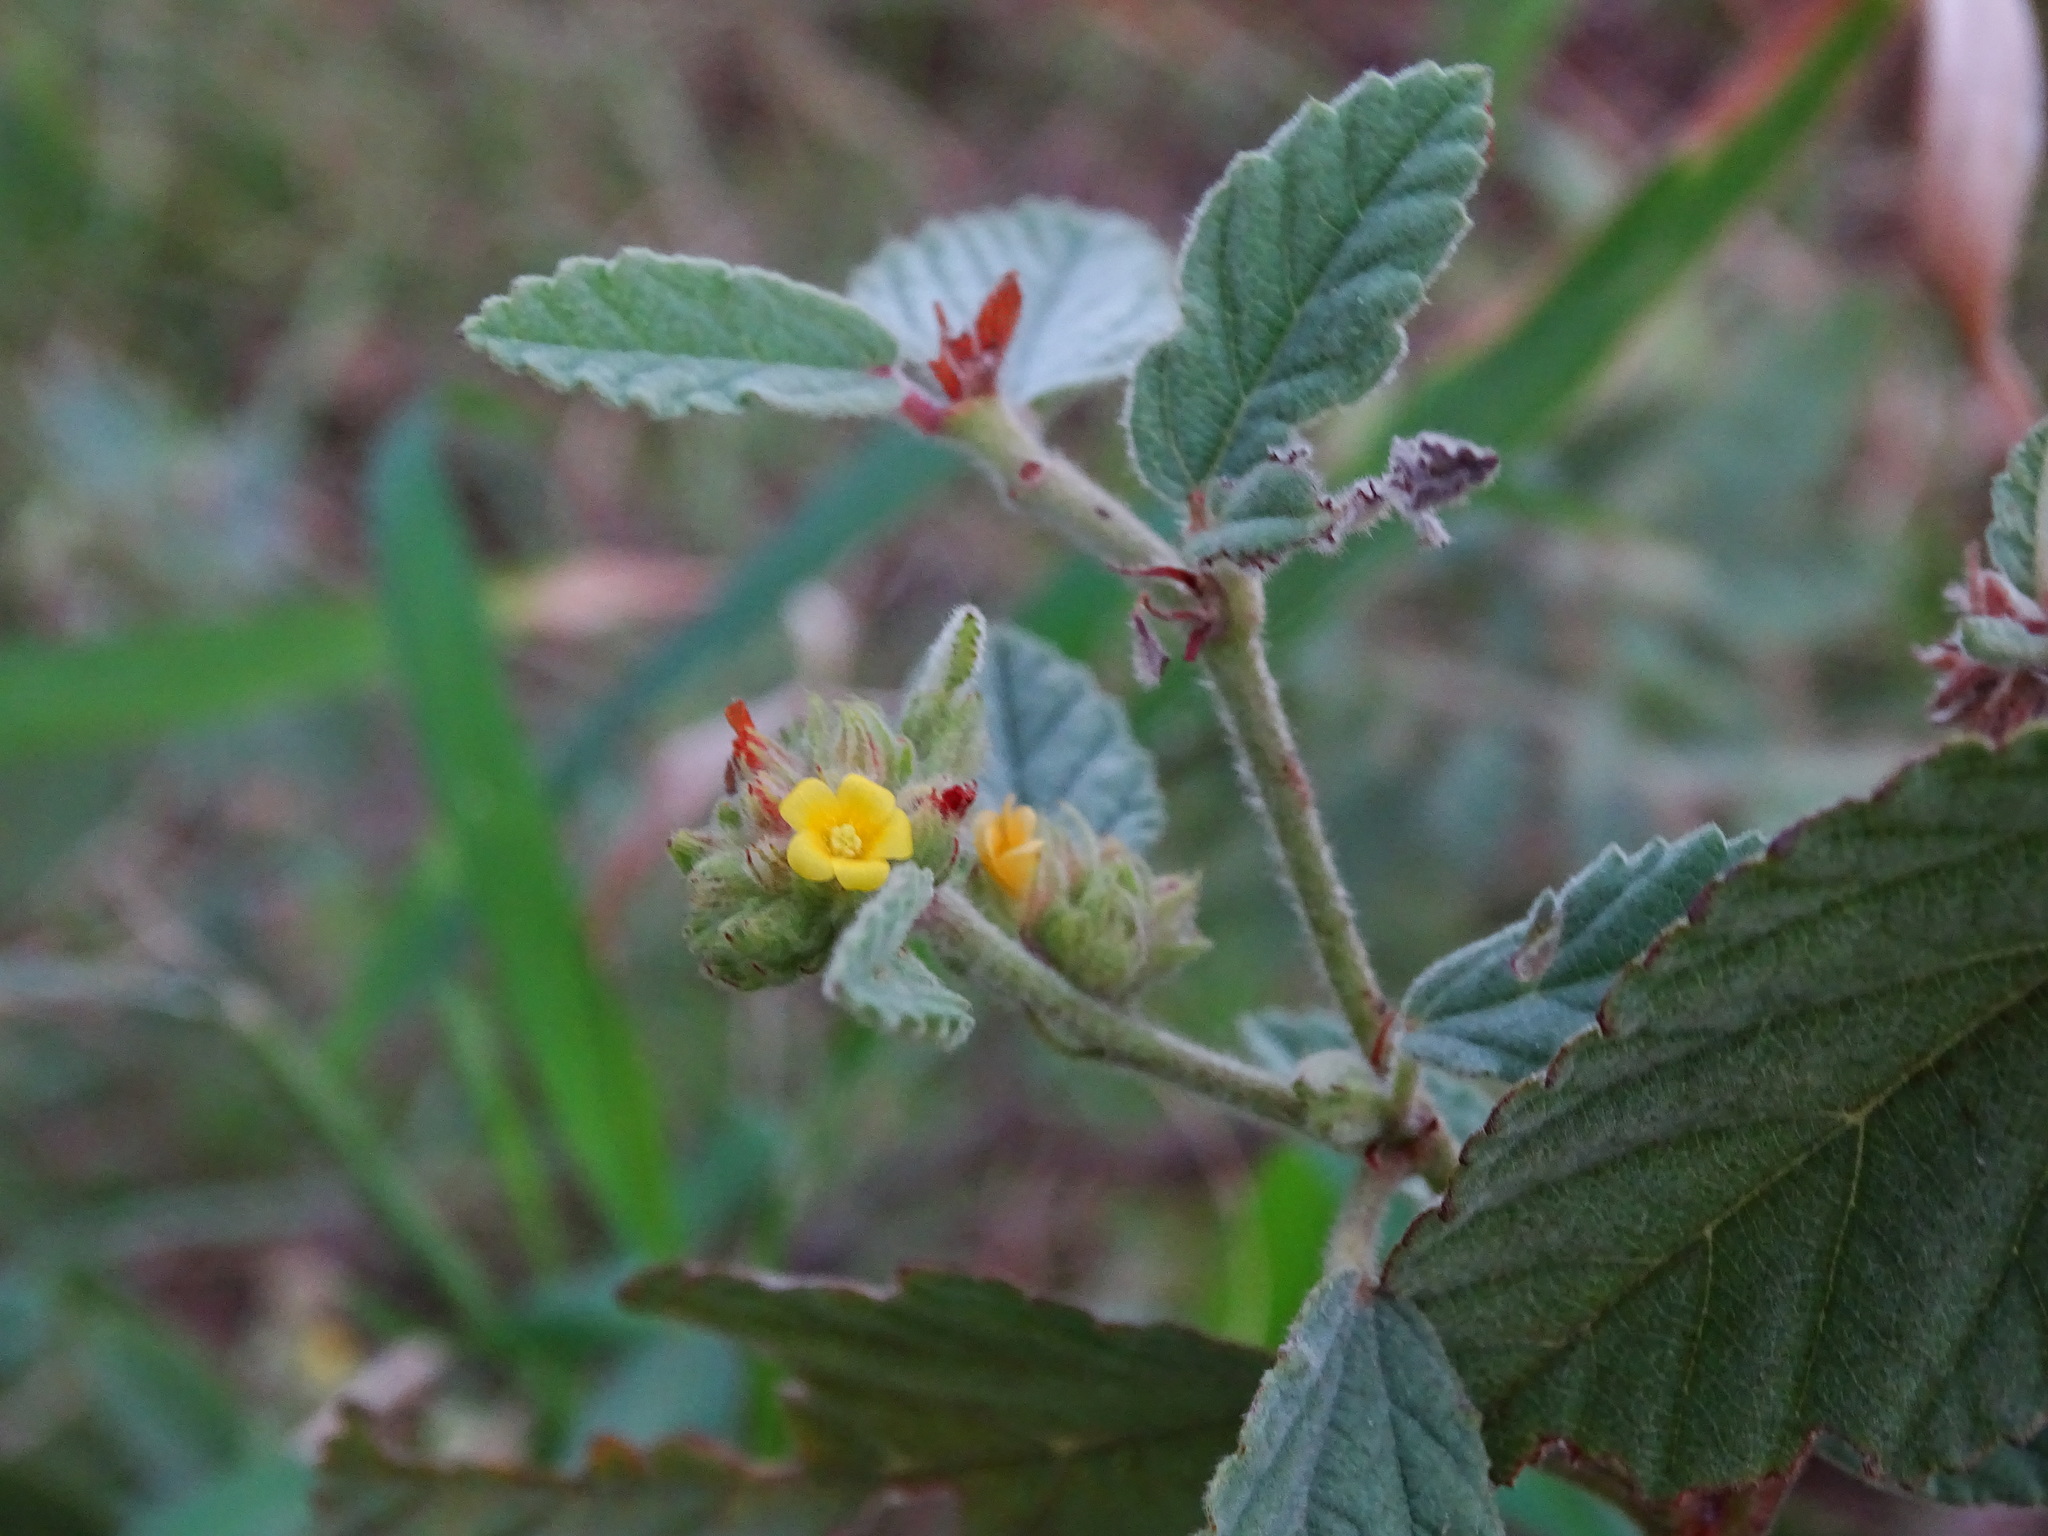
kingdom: Plantae
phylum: Tracheophyta
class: Magnoliopsida
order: Malvales
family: Malvaceae
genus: Waltheria
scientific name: Waltheria indica
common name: Leather-coat
